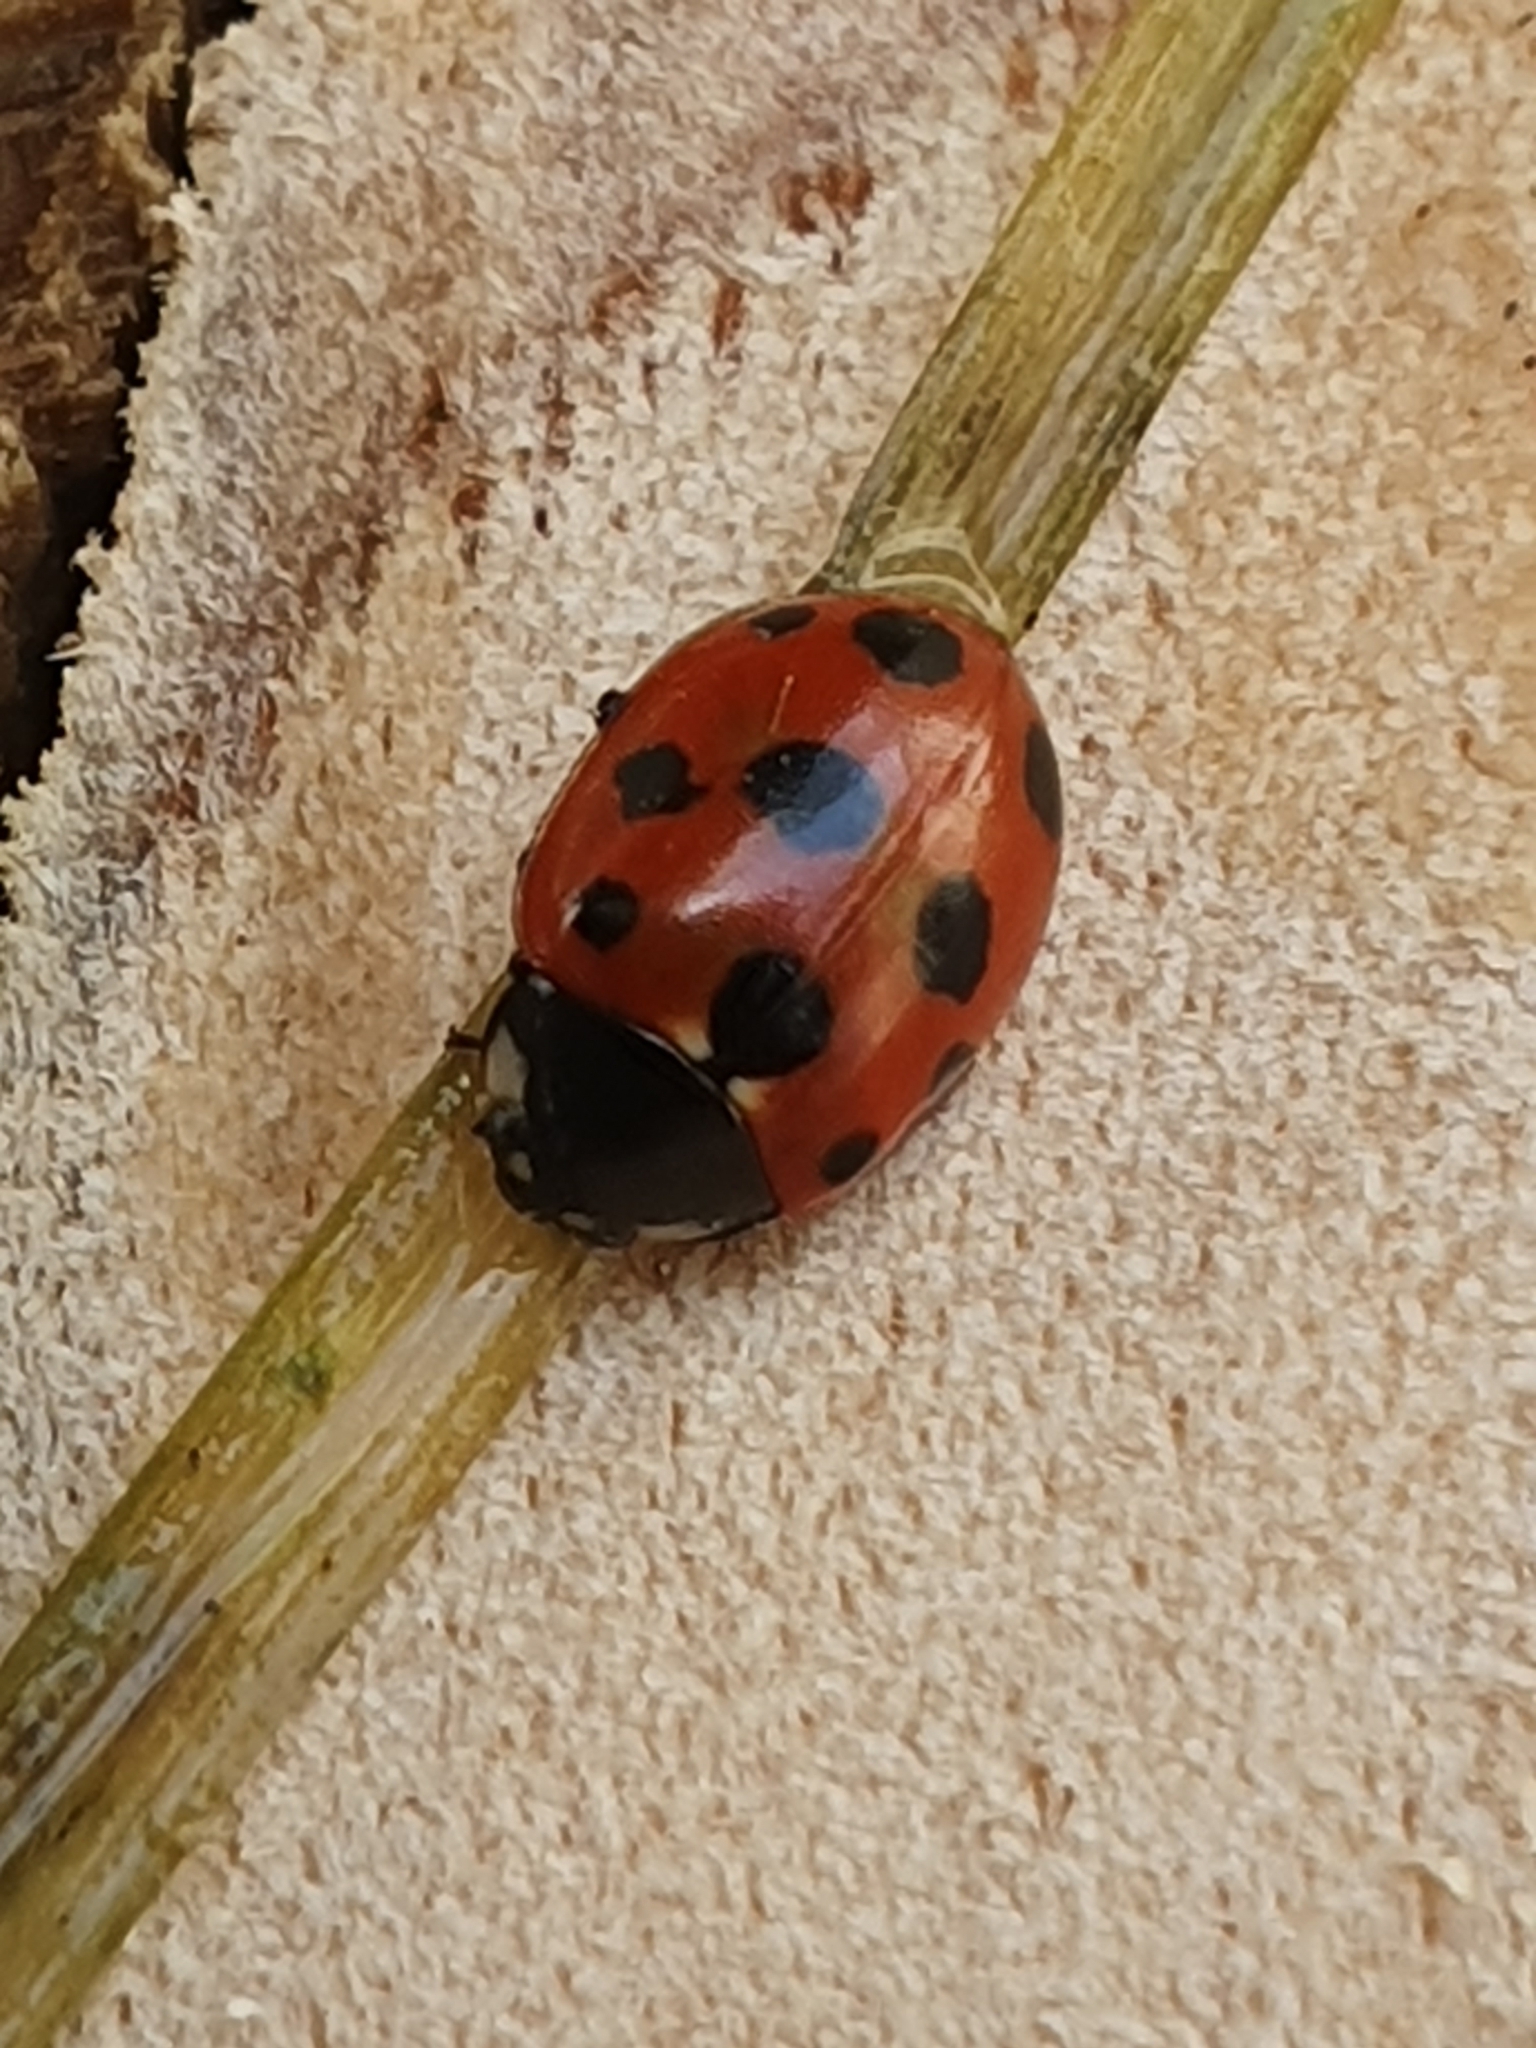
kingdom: Animalia
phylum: Arthropoda
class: Insecta
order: Coleoptera
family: Coccinellidae
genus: Coccinella
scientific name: Coccinella undecimpunctata
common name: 11-spot ladybird
